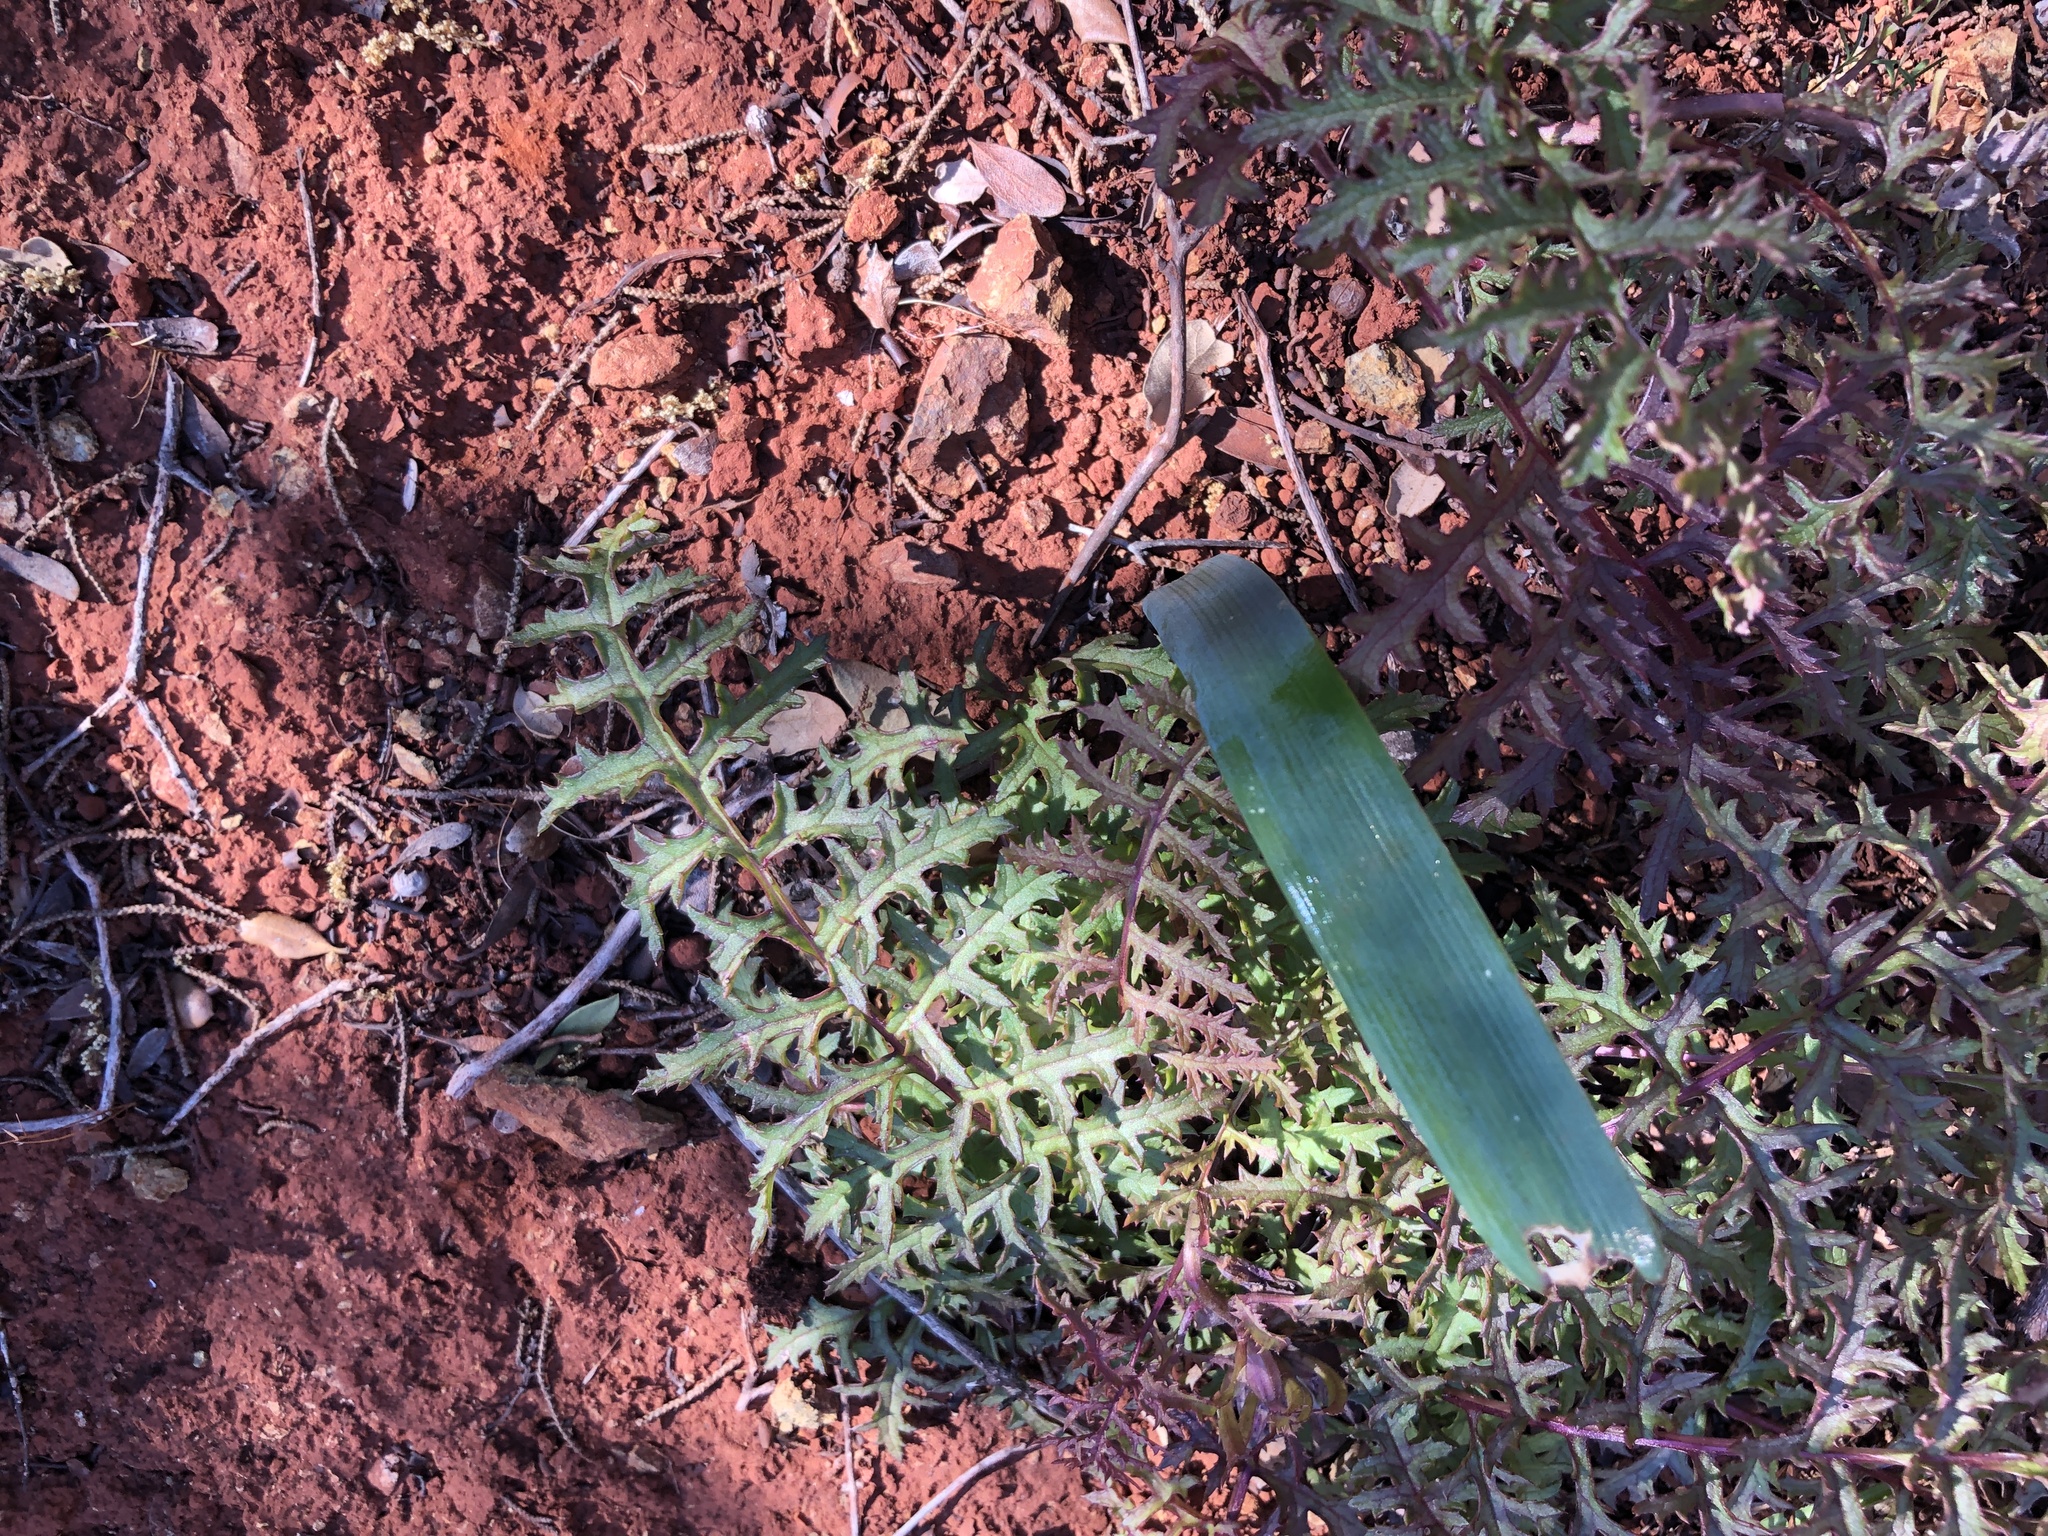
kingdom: Plantae
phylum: Tracheophyta
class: Magnoliopsida
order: Lamiales
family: Orobanchaceae
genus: Pedicularis
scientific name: Pedicularis densiflora
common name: Indian warrior
